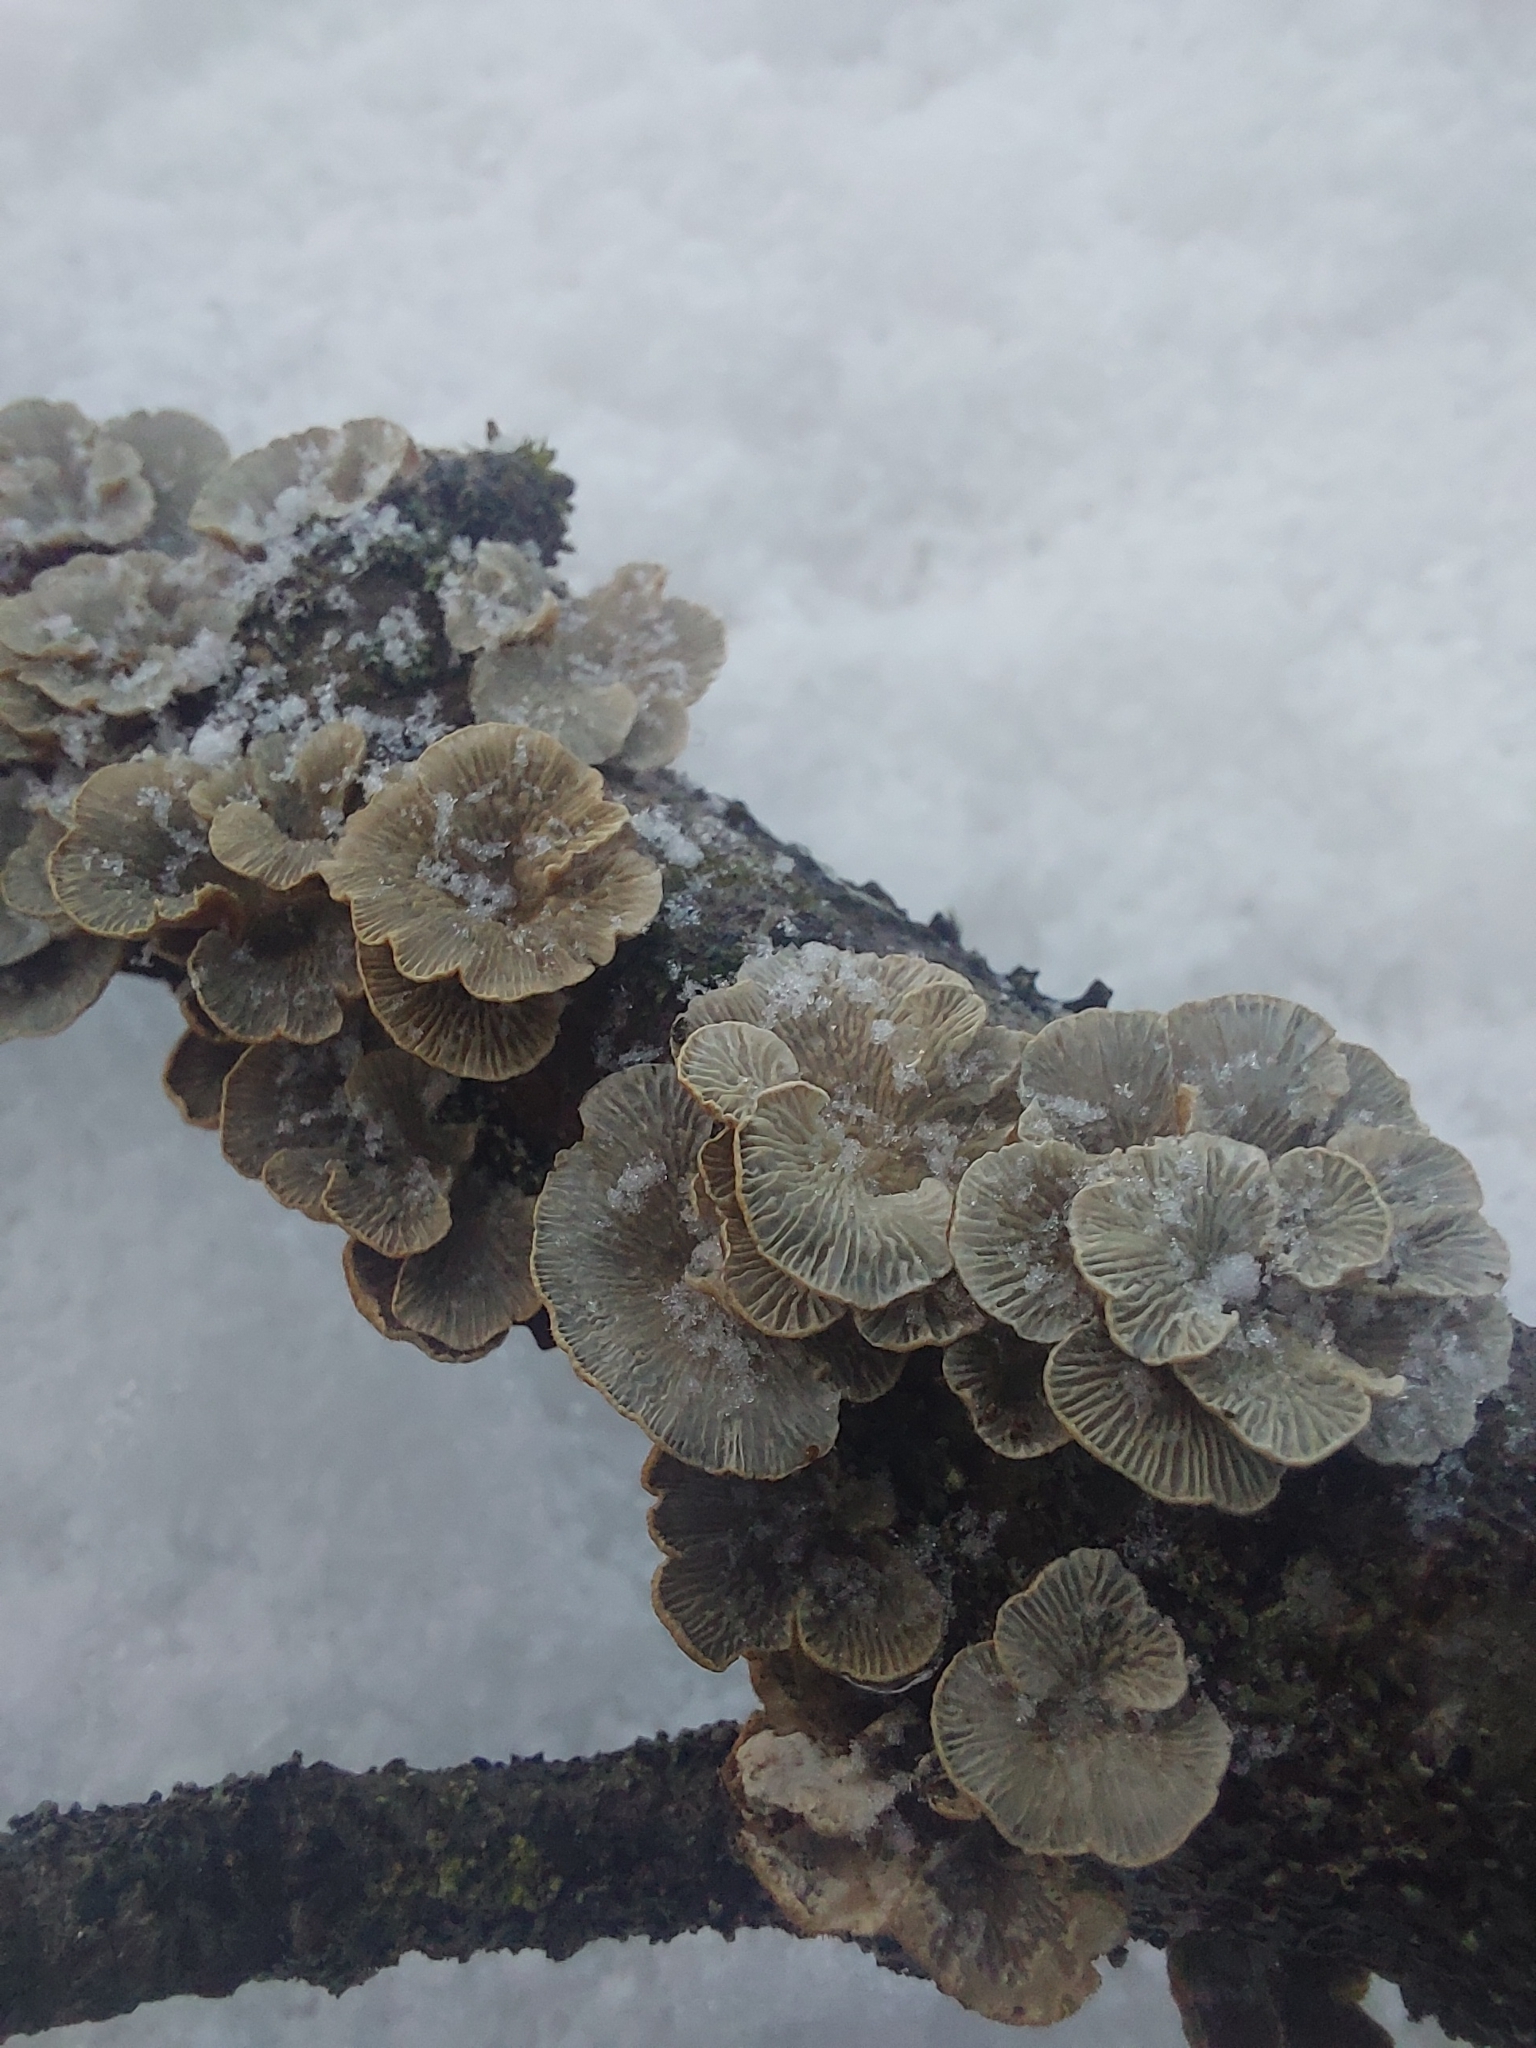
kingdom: Fungi
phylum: Basidiomycota
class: Agaricomycetes
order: Amylocorticiales
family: Amylocorticiaceae
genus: Plicaturopsis
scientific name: Plicaturopsis crispa
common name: Crimped gill
